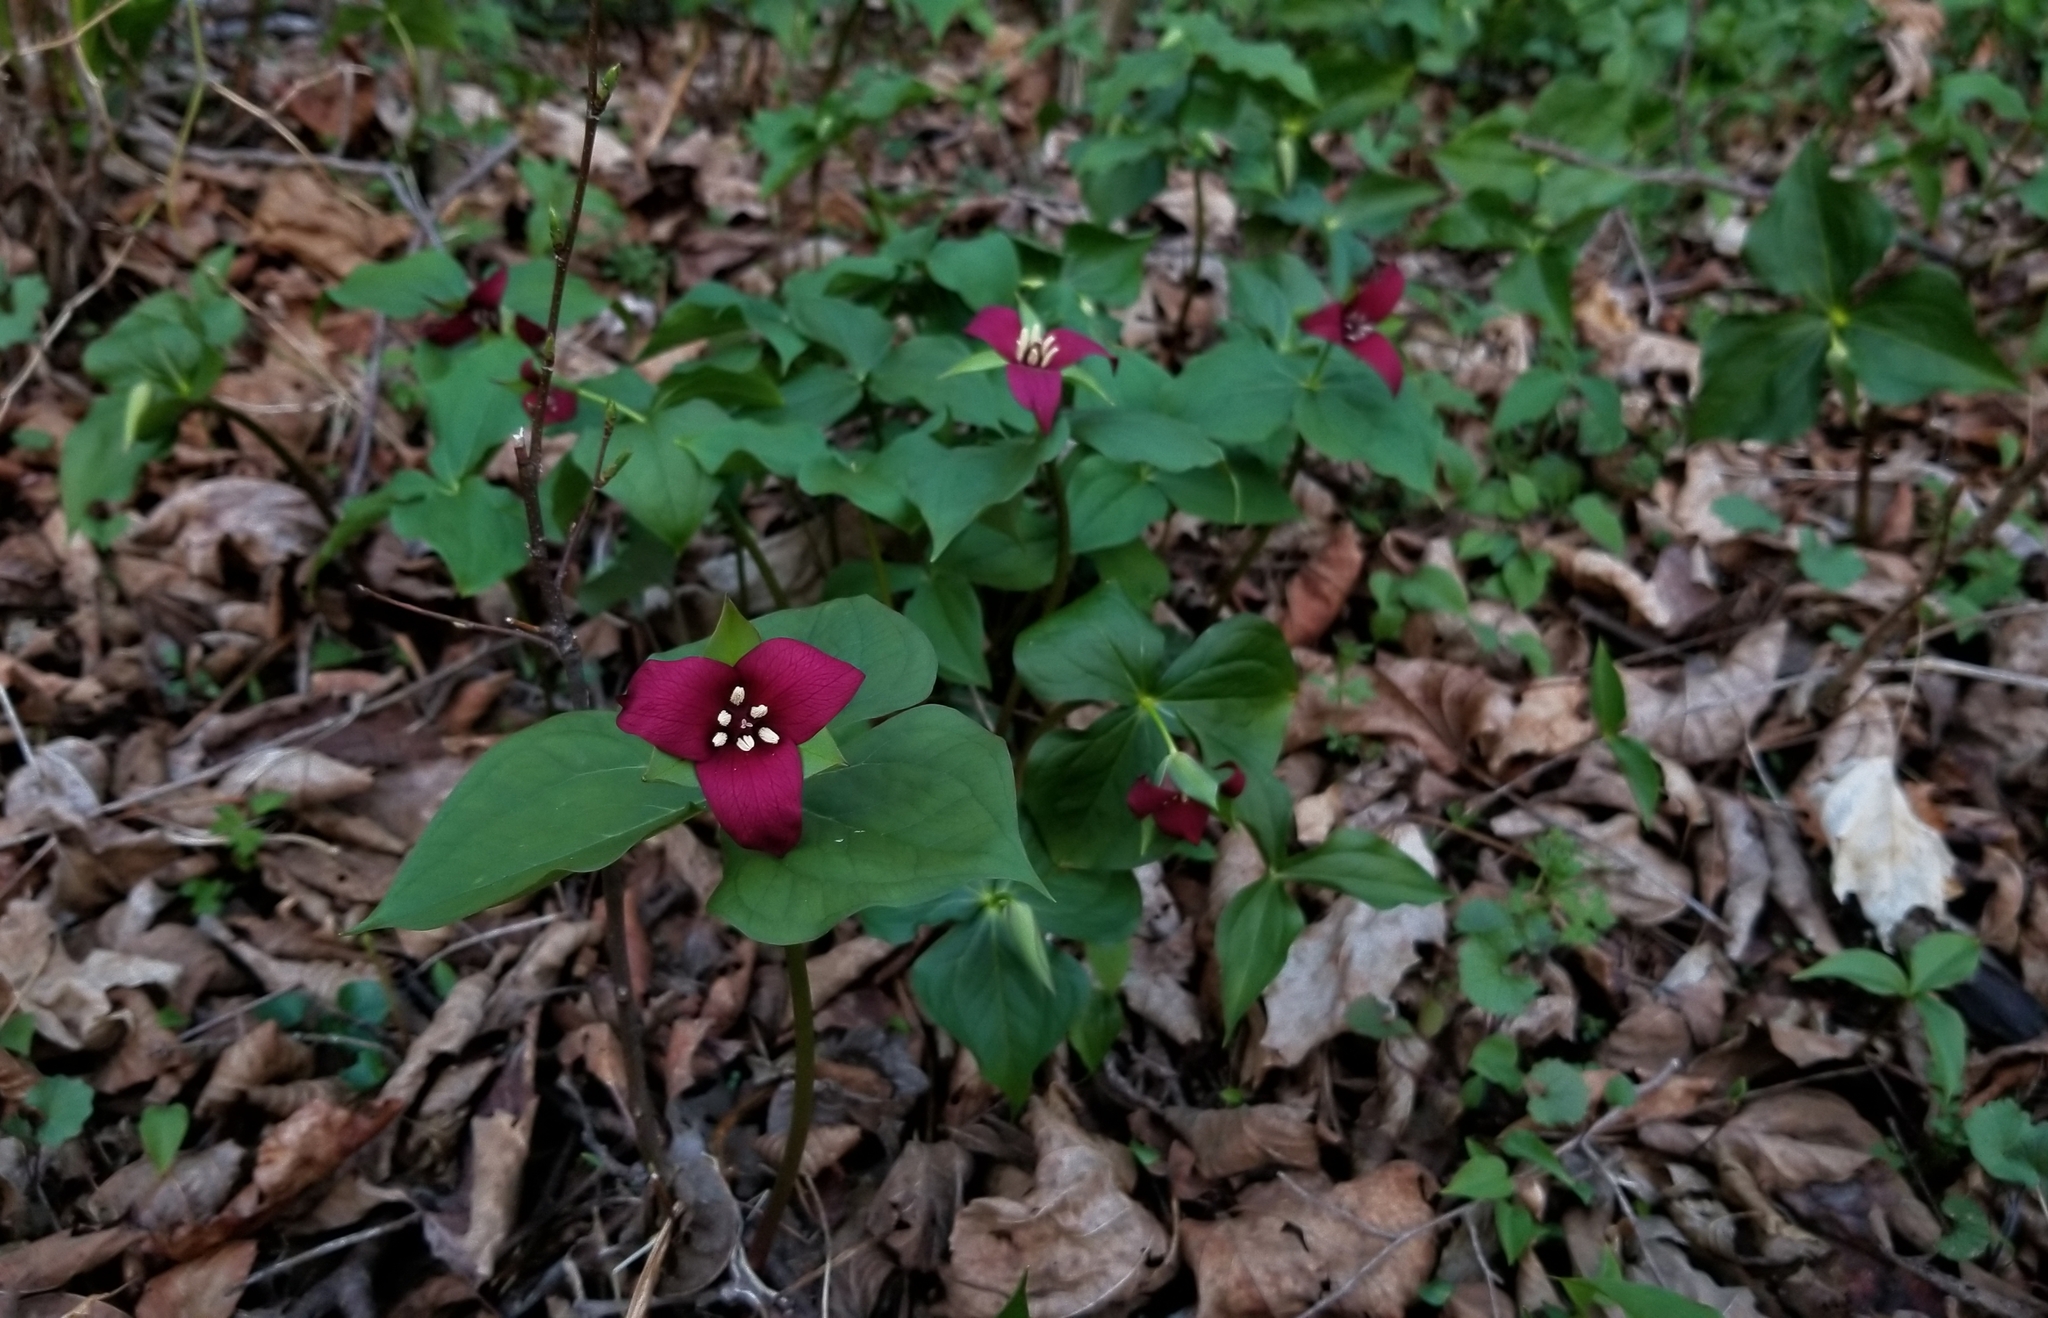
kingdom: Plantae
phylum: Tracheophyta
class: Liliopsida
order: Liliales
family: Melanthiaceae
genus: Trillium
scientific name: Trillium erectum
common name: Purple trillium
